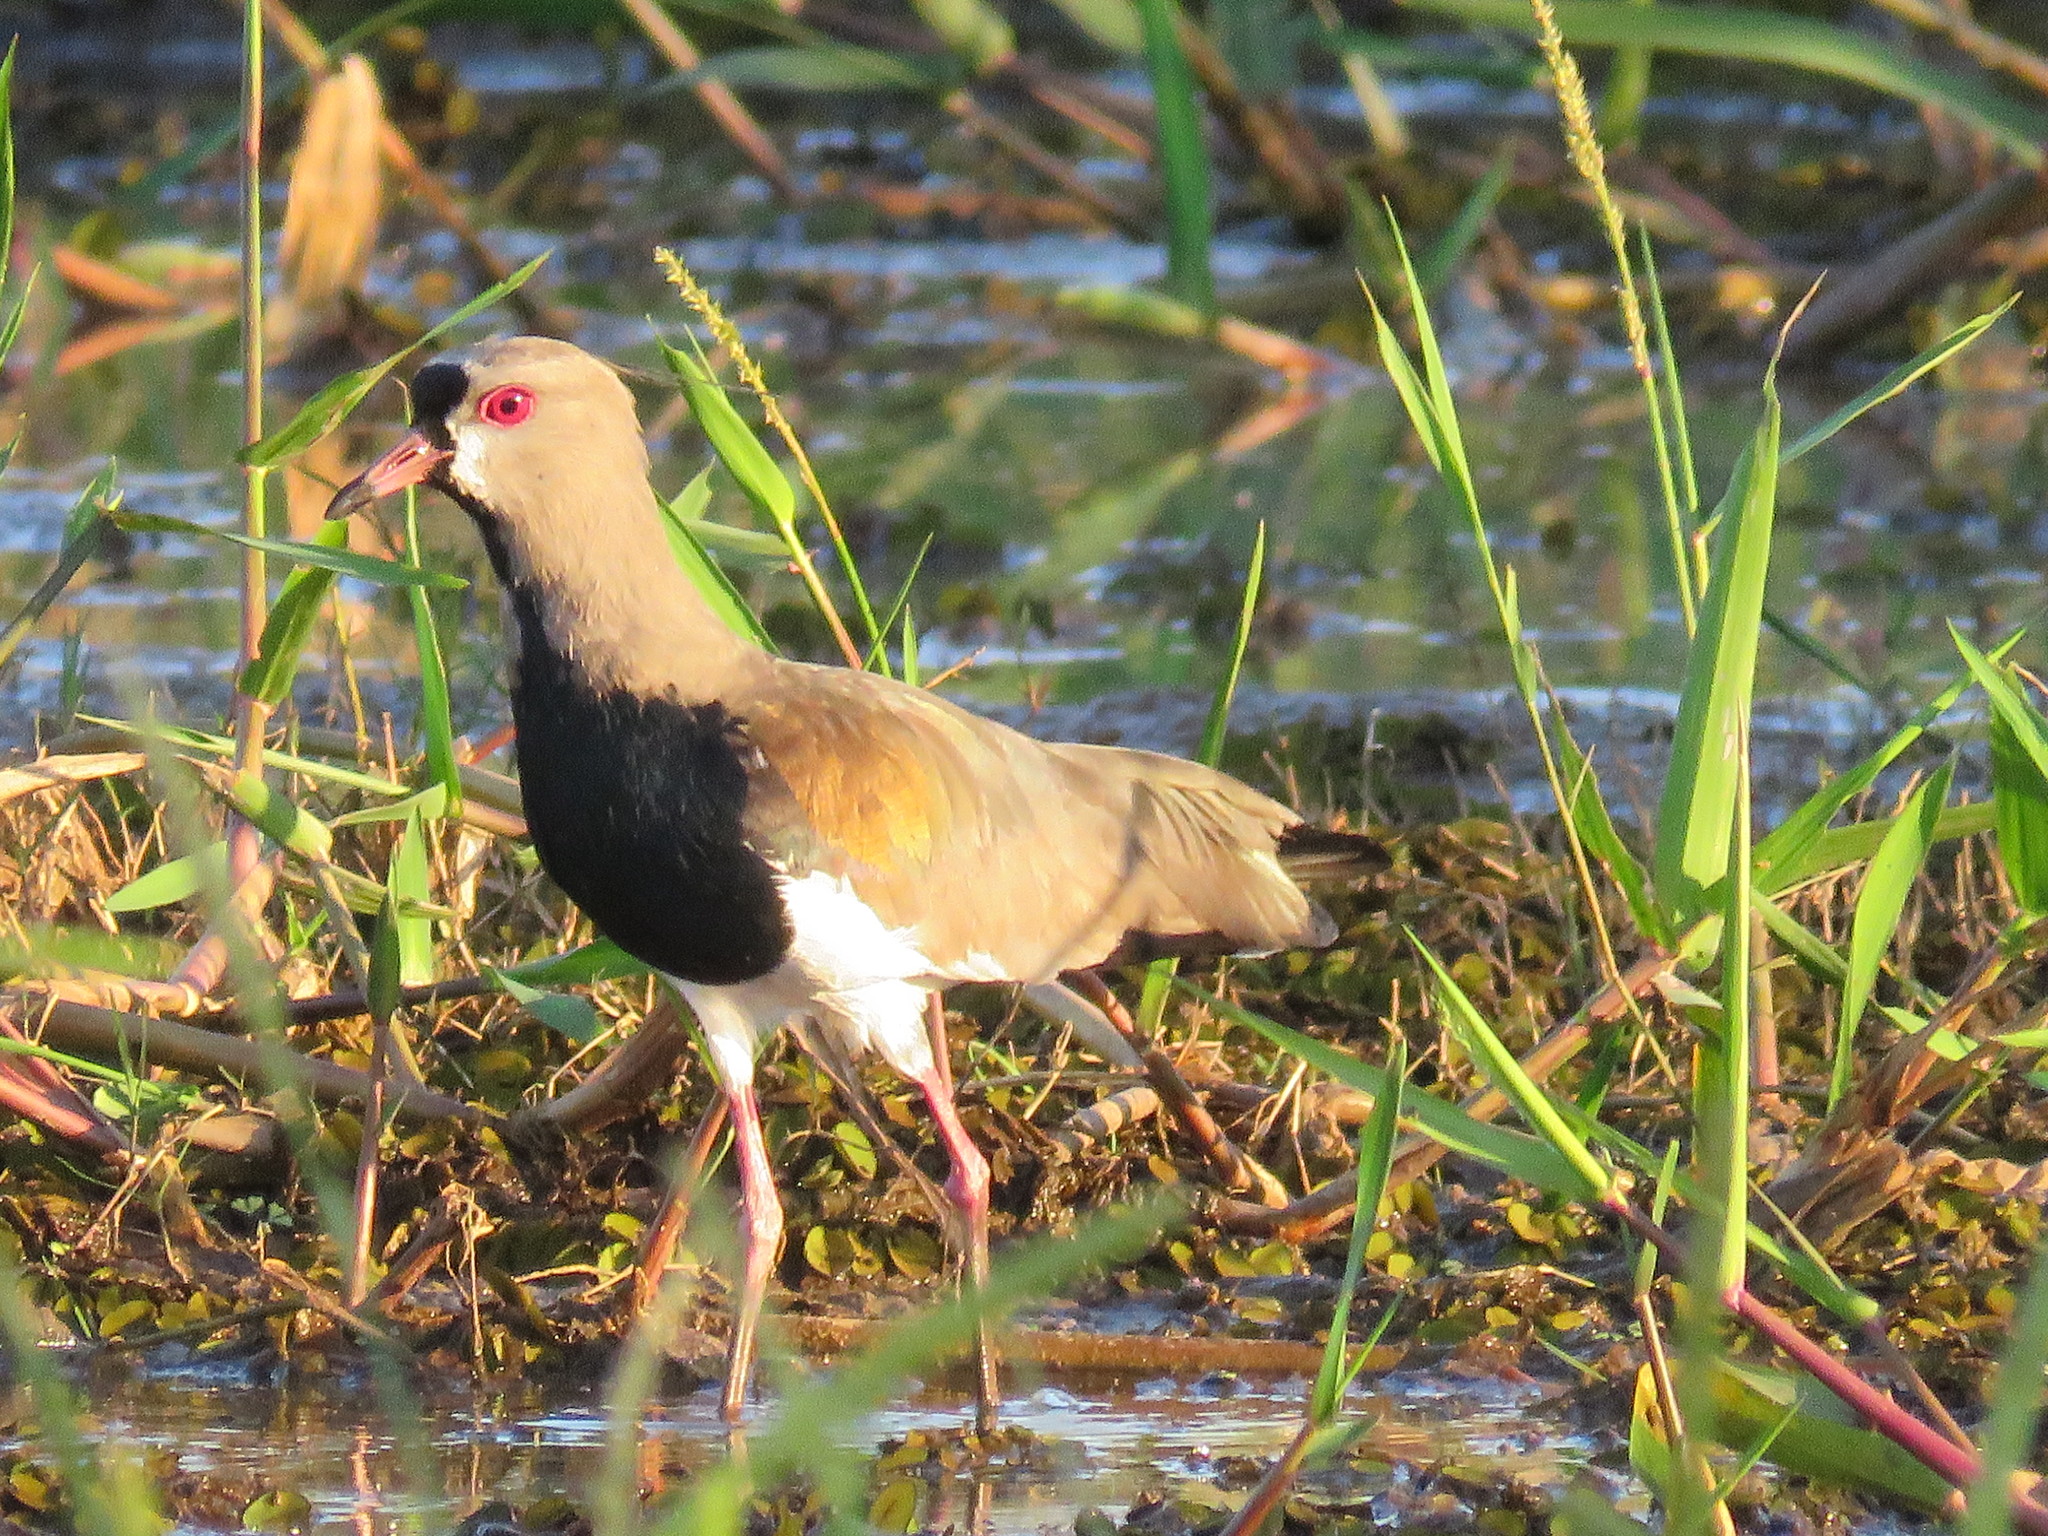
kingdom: Animalia
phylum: Chordata
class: Aves
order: Charadriiformes
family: Charadriidae
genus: Vanellus
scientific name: Vanellus chilensis
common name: Southern lapwing
